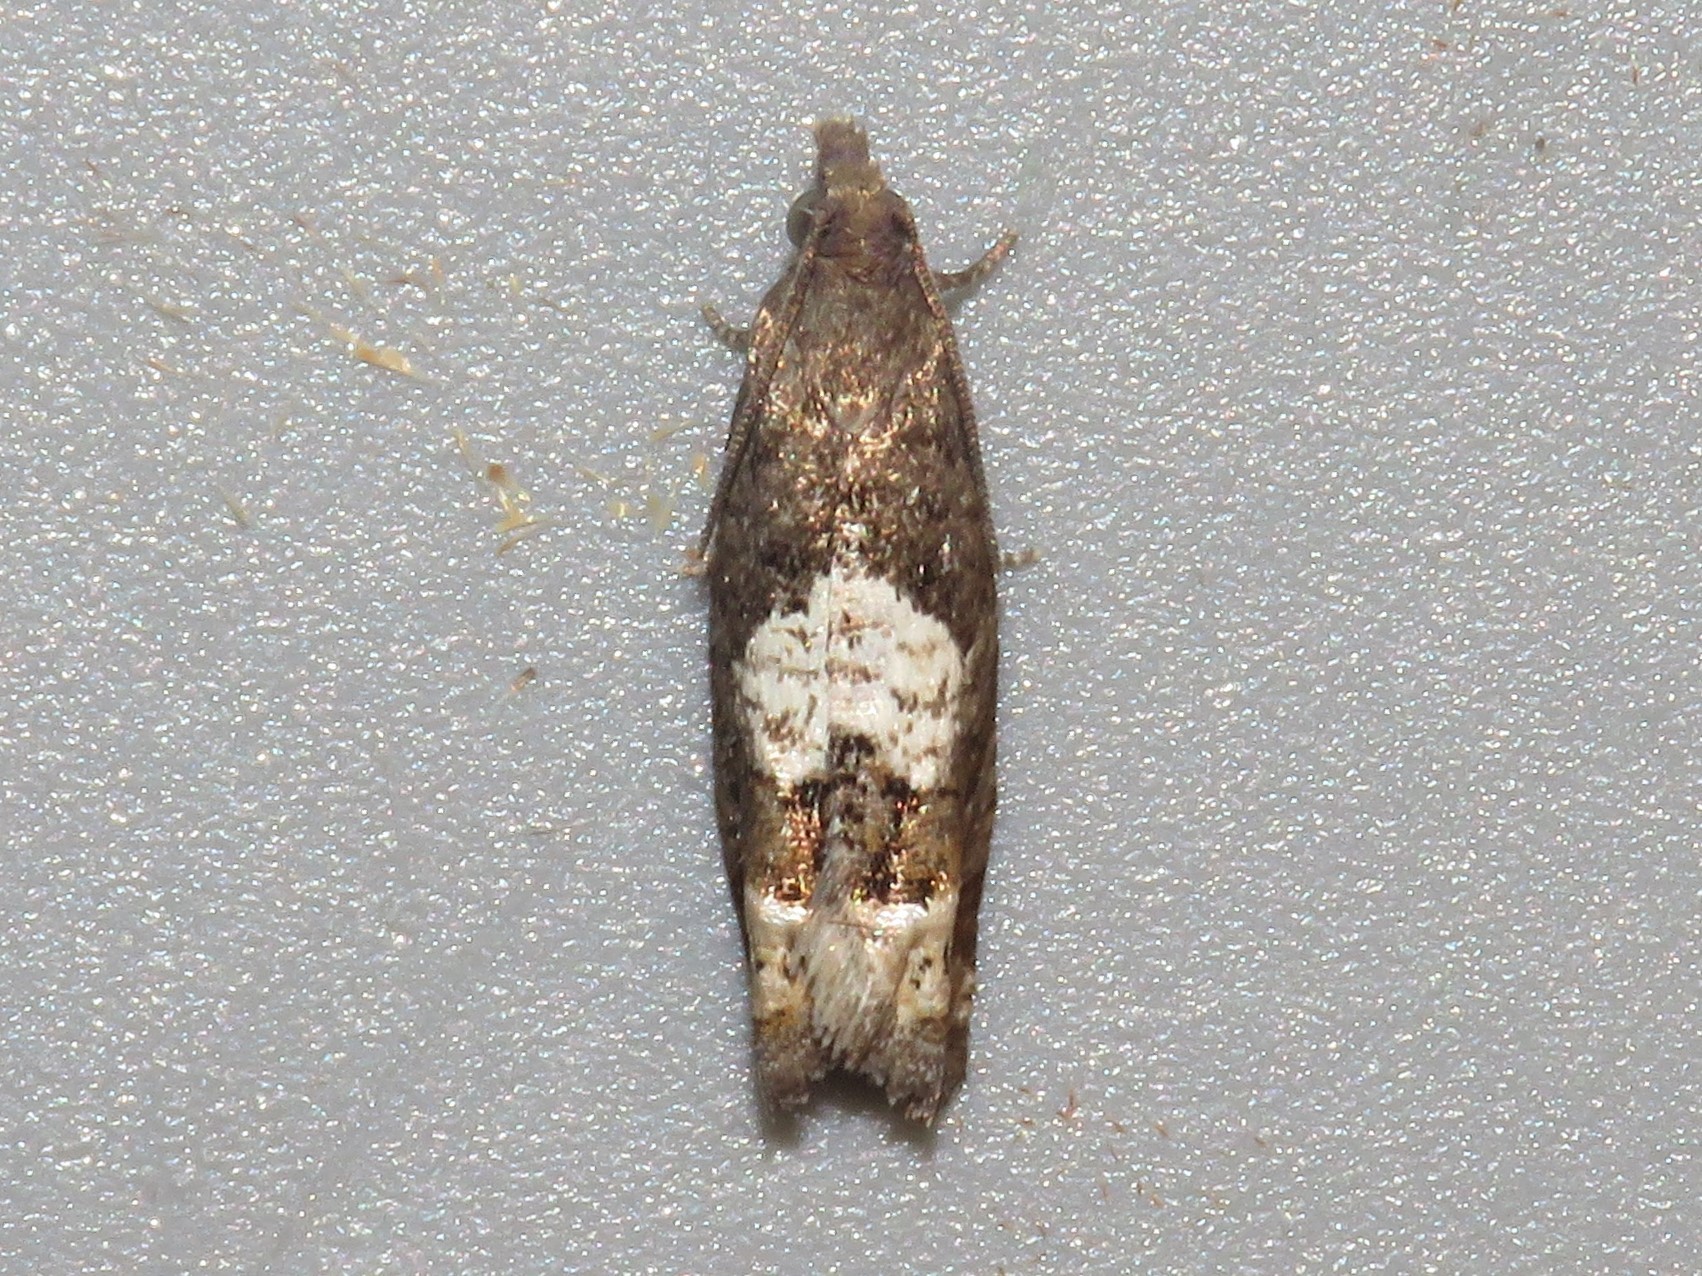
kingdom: Animalia
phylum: Arthropoda
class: Insecta
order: Lepidoptera
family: Tortricidae
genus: Eucosma
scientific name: Eucosma parmatana
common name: Aster eucosma moth
